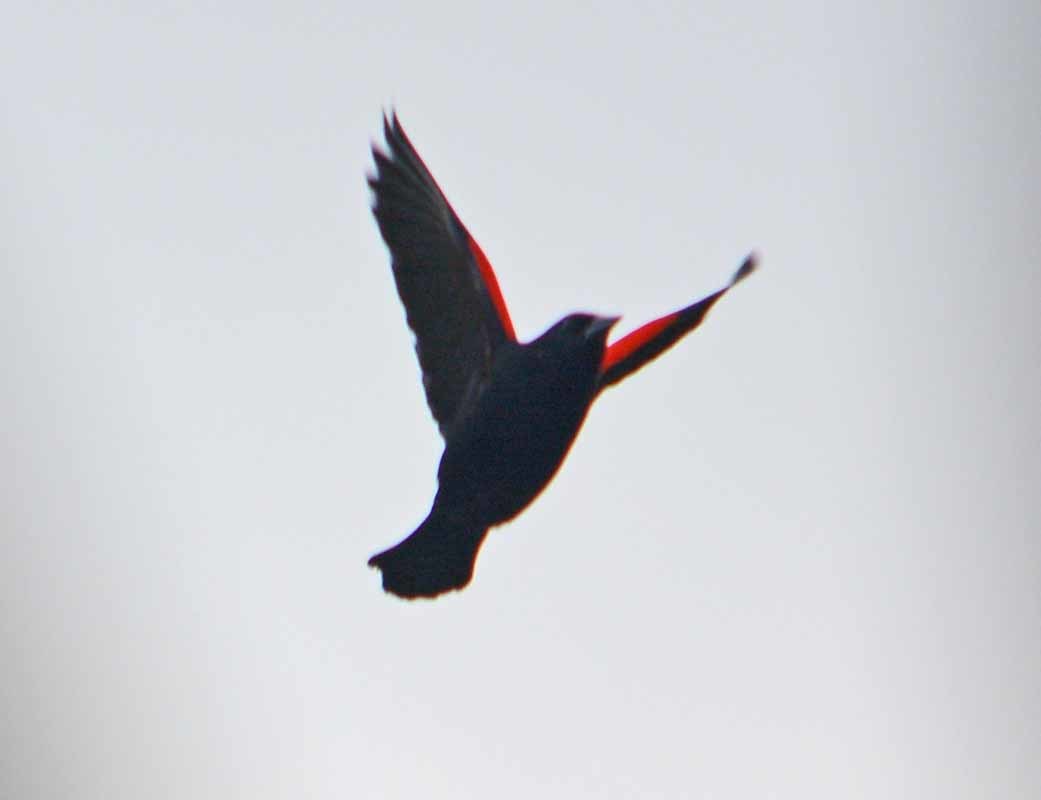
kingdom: Animalia
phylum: Chordata
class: Aves
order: Passeriformes
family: Icteridae
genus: Agelaius
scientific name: Agelaius phoeniceus
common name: Red-winged blackbird
